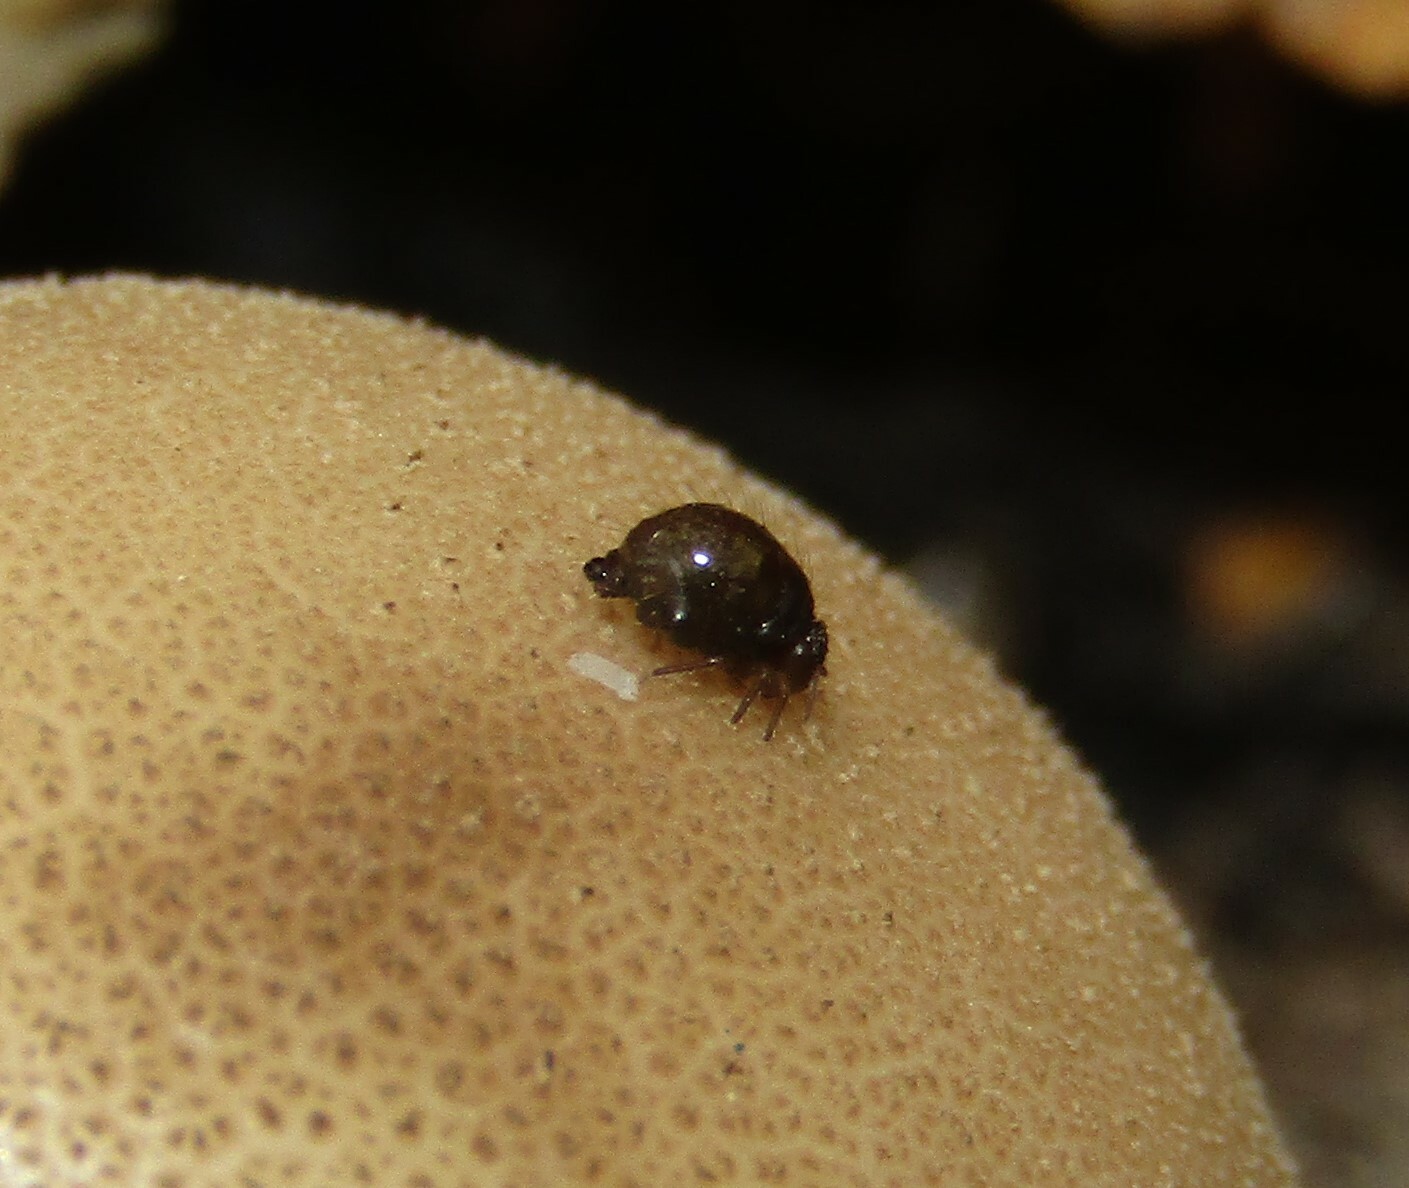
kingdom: Animalia
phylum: Arthropoda
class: Collembola
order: Symphypleona
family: Sminthuridae
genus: Allacma
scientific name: Allacma fusca
